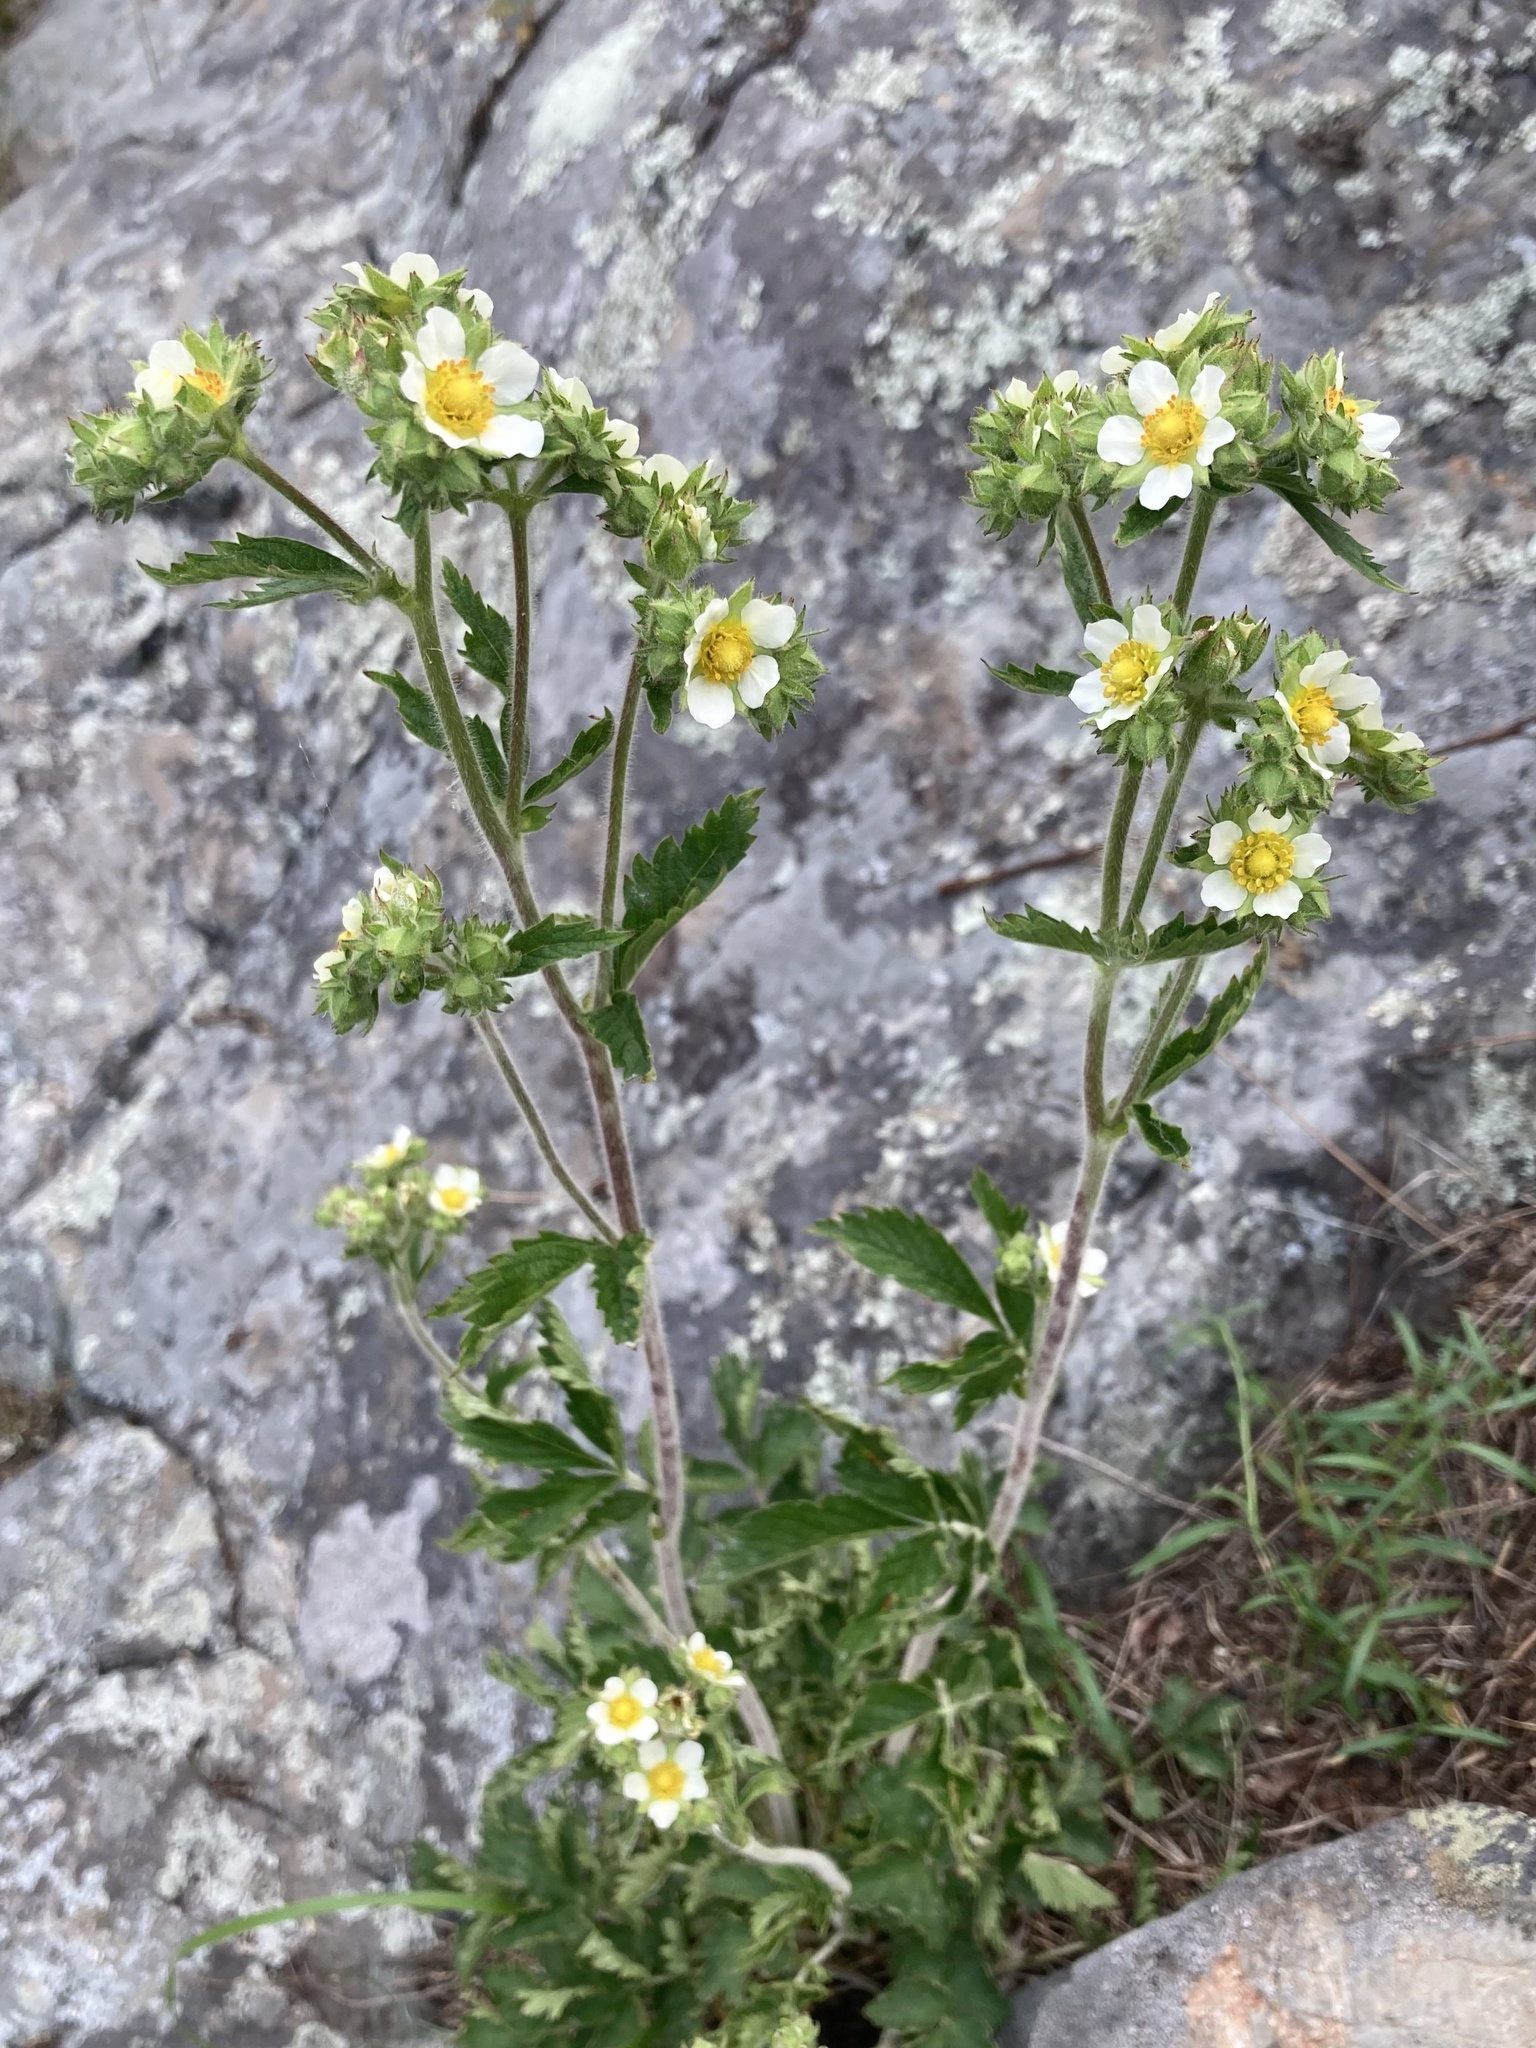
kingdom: Plantae
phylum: Tracheophyta
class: Magnoliopsida
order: Rosales
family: Rosaceae
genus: Drymocallis
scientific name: Drymocallis arguta
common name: Tall cinquefoil
